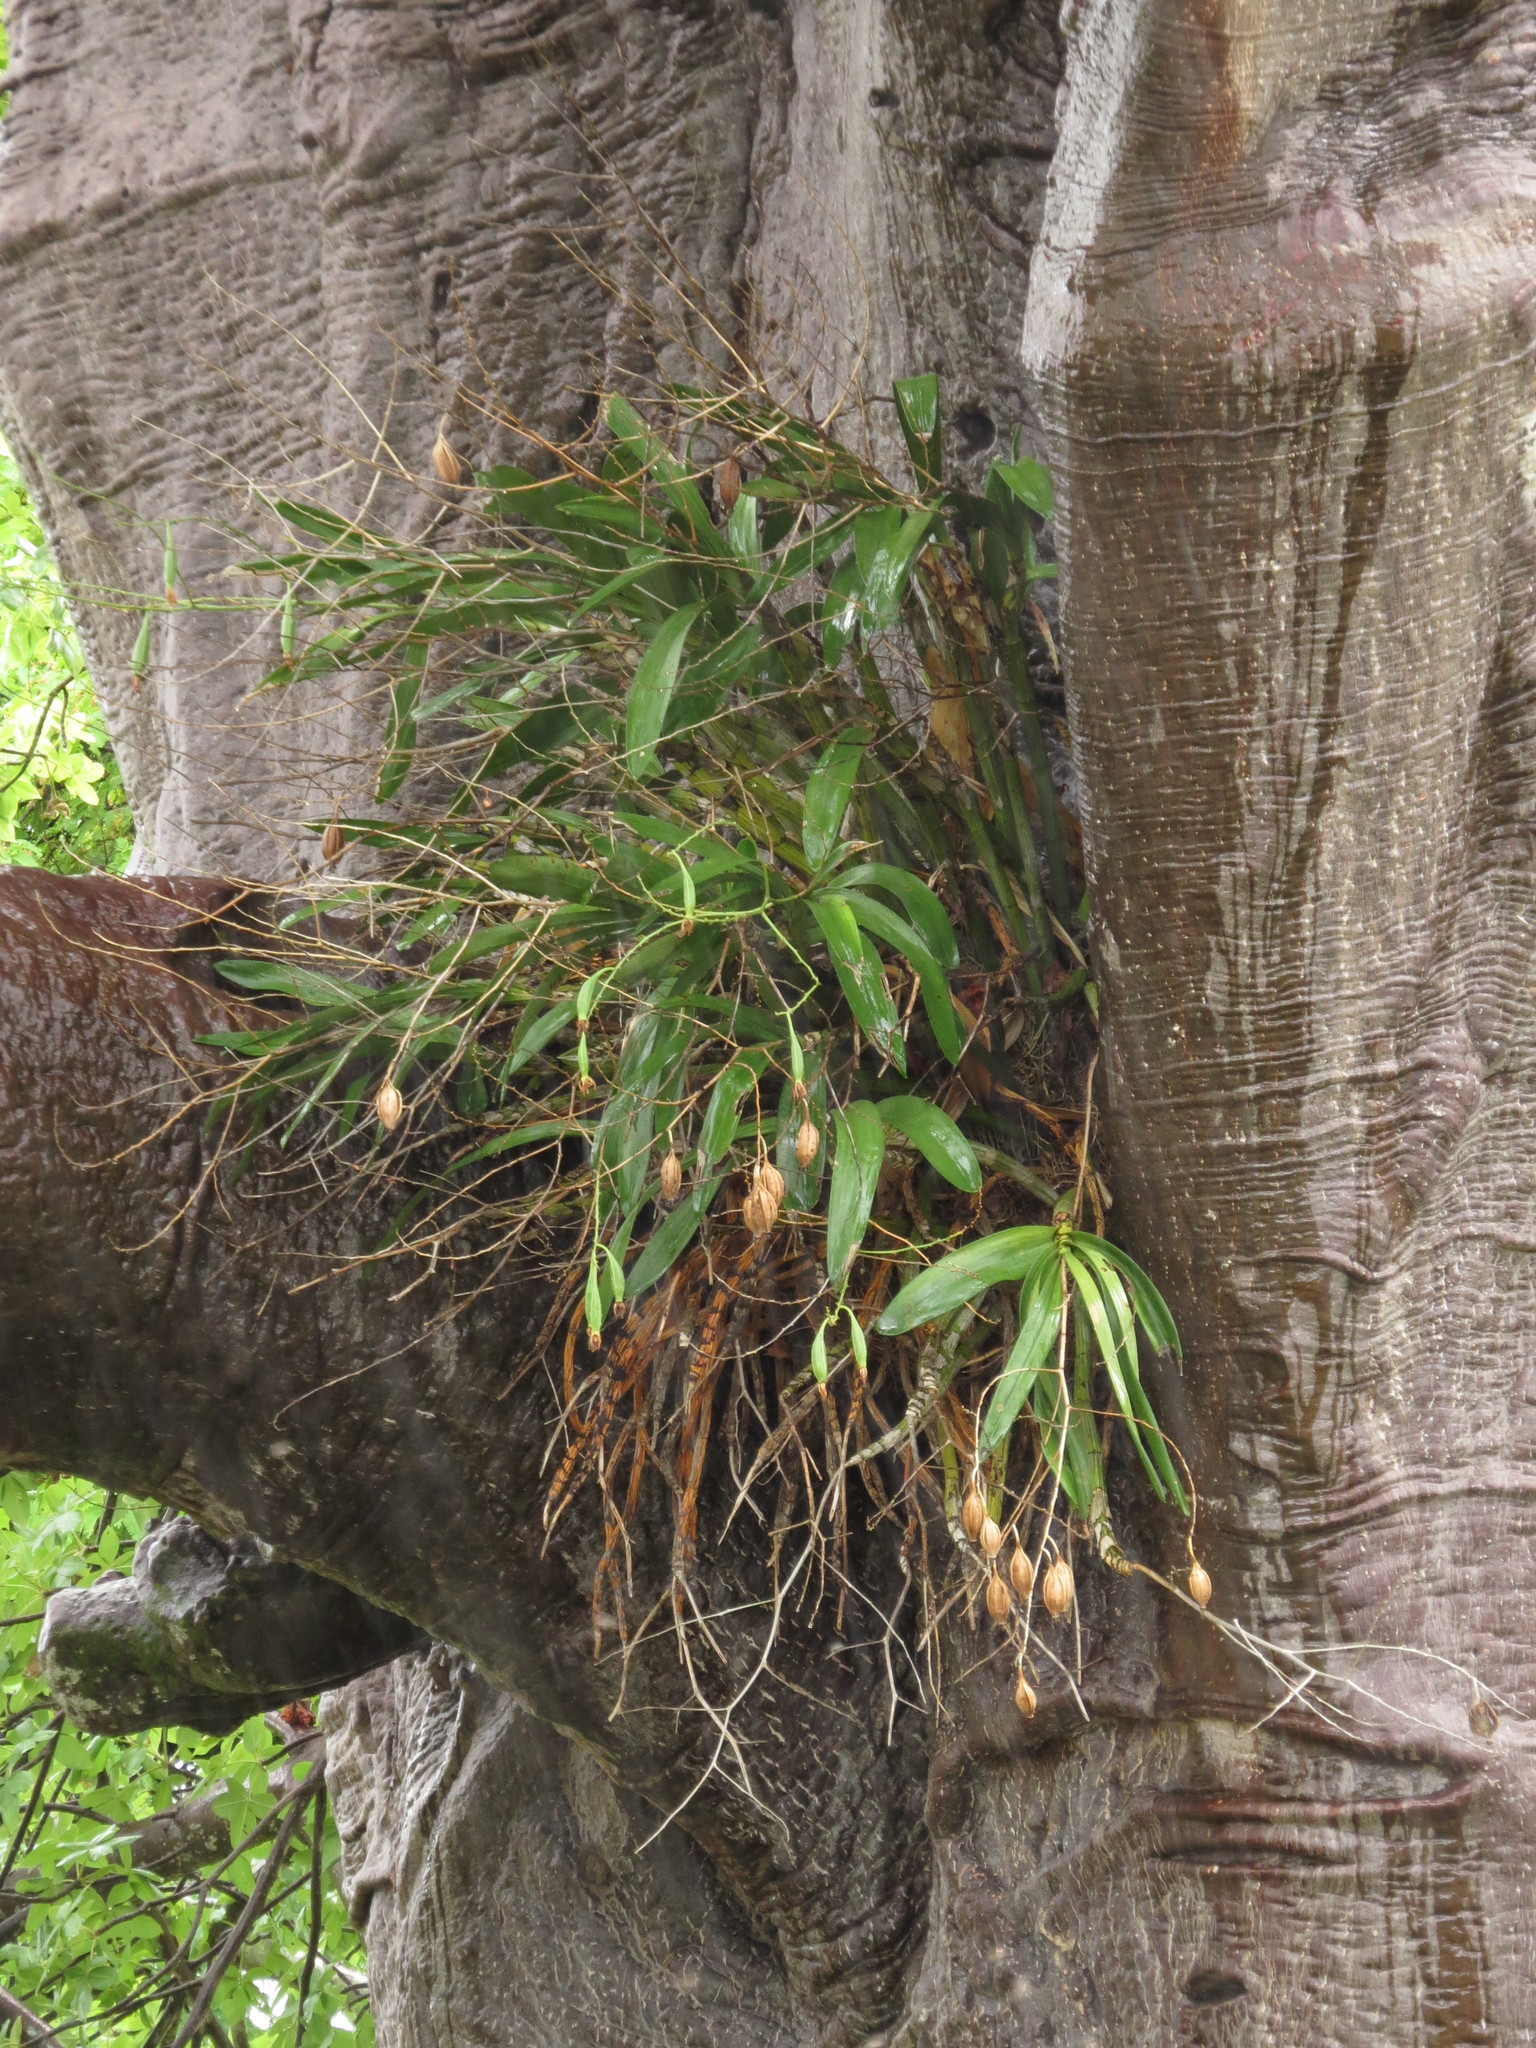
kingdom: Plantae
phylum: Tracheophyta
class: Liliopsida
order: Asparagales
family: Orchidaceae
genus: Ansellia
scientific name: Ansellia africana
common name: African ansellia
